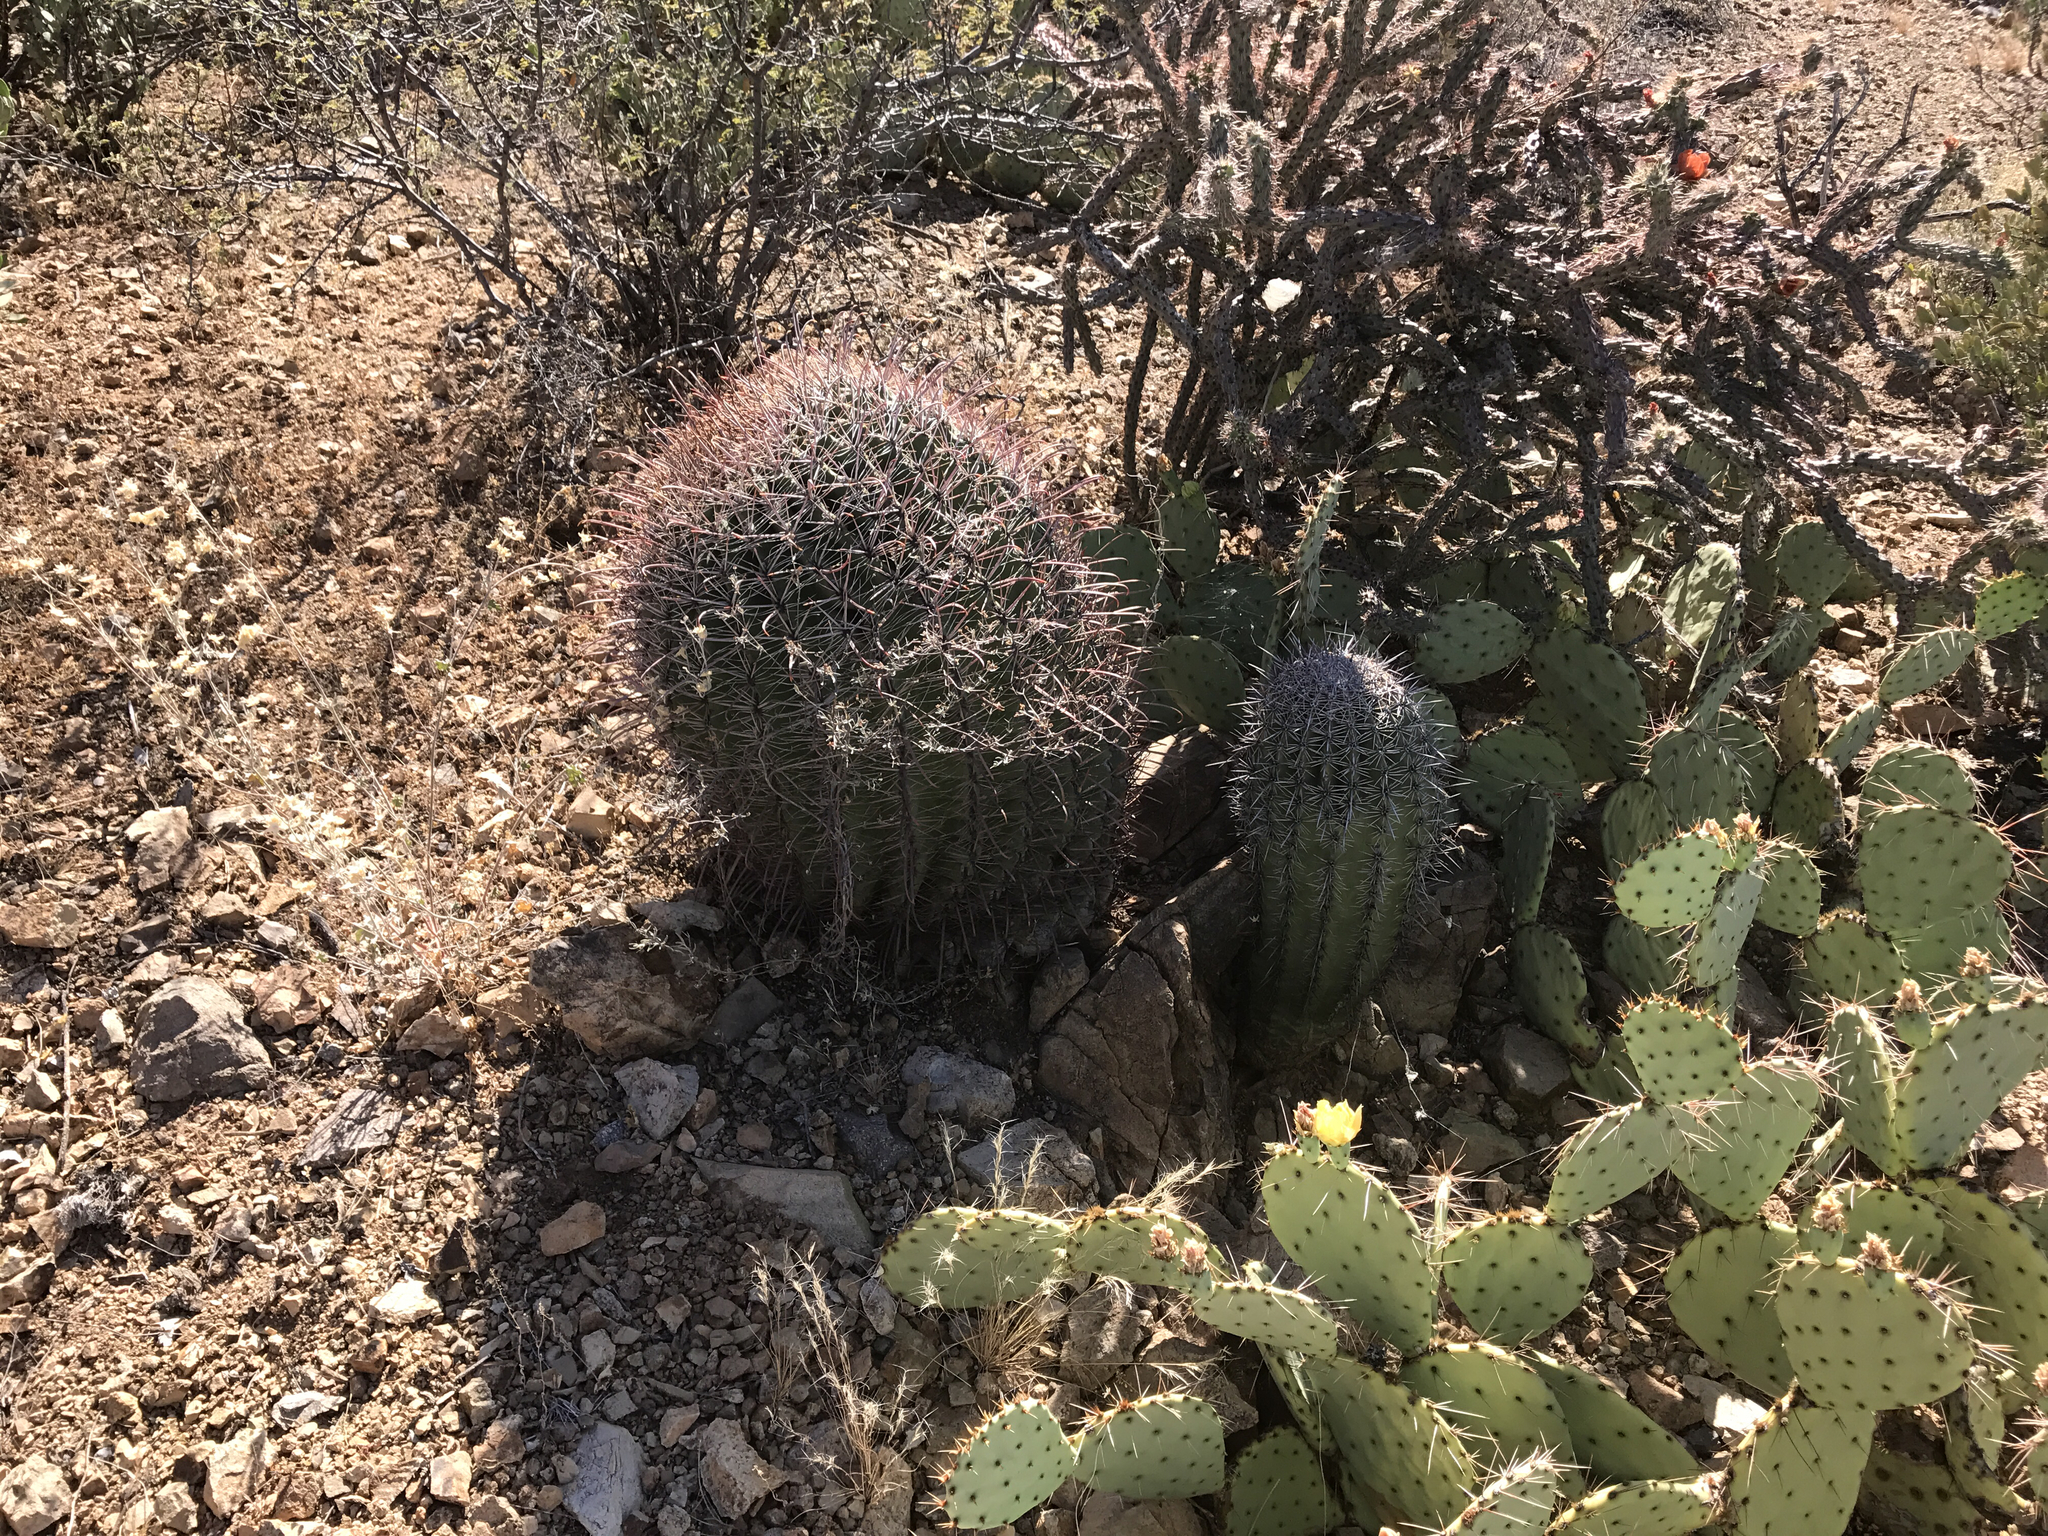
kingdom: Plantae
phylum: Tracheophyta
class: Magnoliopsida
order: Caryophyllales
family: Cactaceae
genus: Carnegiea
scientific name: Carnegiea gigantea
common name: Saguaro
